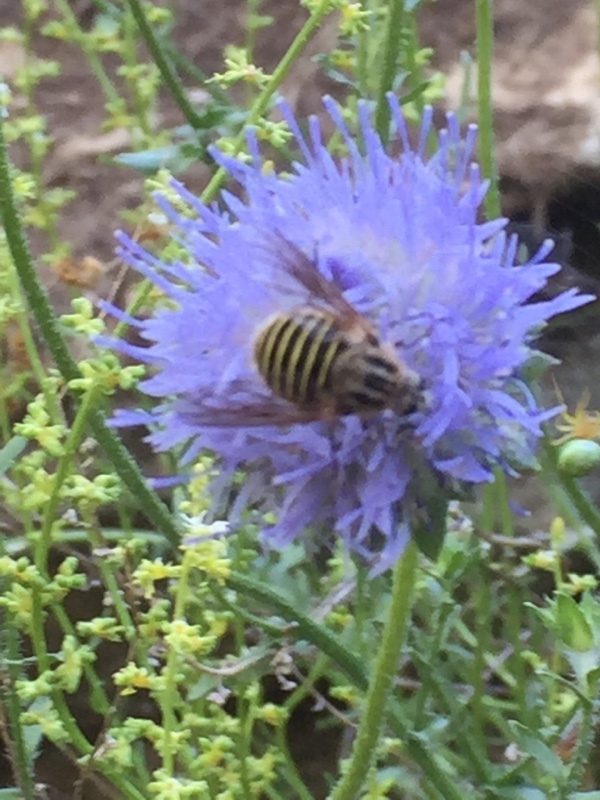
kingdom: Animalia
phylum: Arthropoda
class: Insecta
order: Diptera
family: Bombyliidae
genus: Protypusia
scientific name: Protypusia incisa
